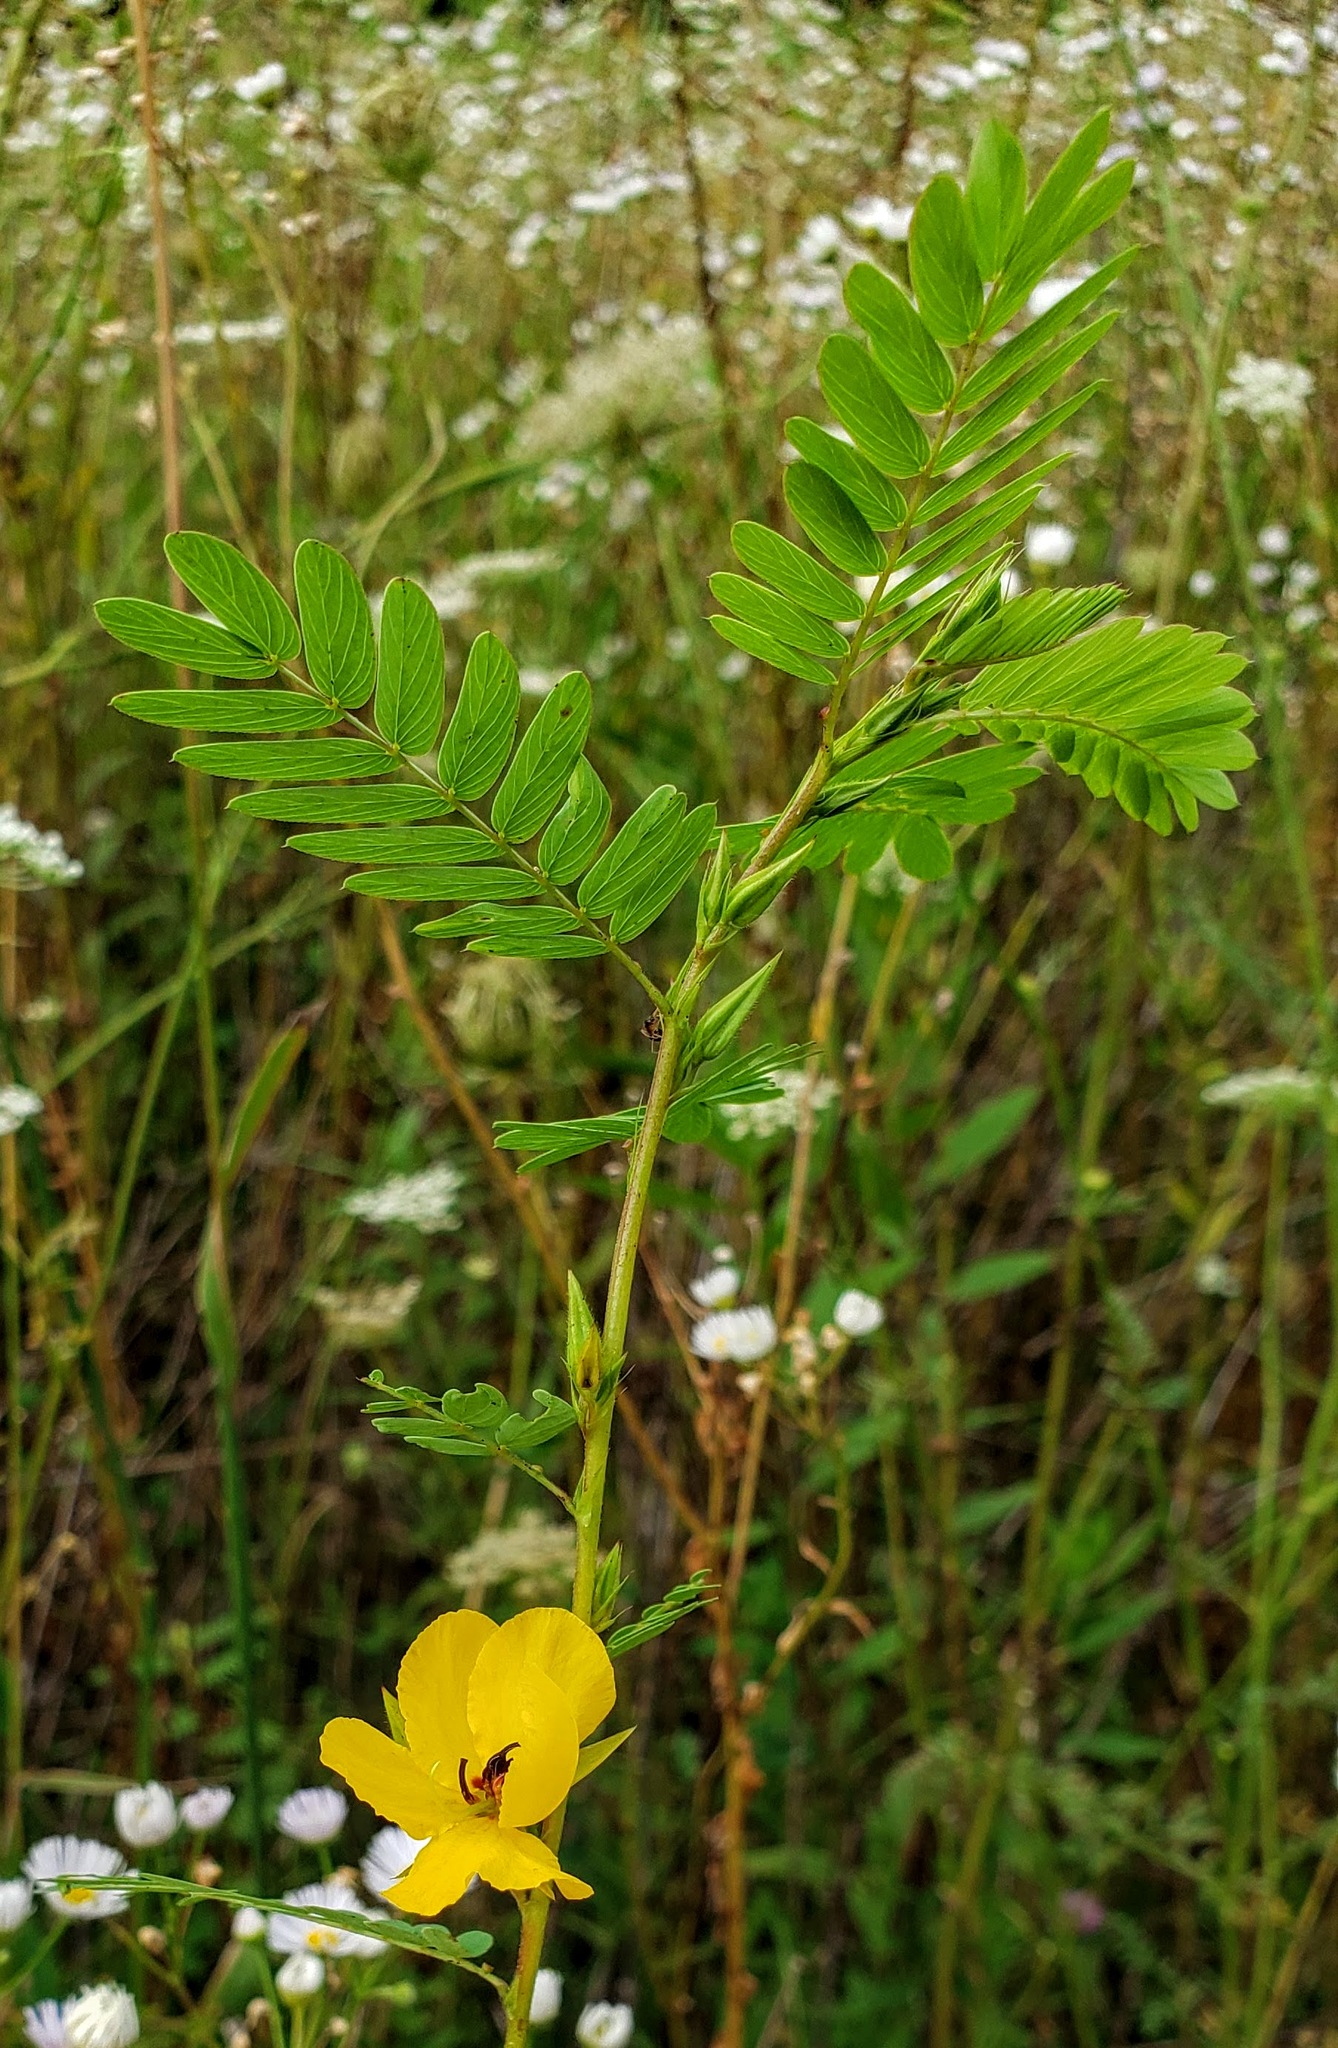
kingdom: Plantae
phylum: Tracheophyta
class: Magnoliopsida
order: Fabales
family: Fabaceae
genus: Chamaecrista
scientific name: Chamaecrista fasciculata
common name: Golden cassia
